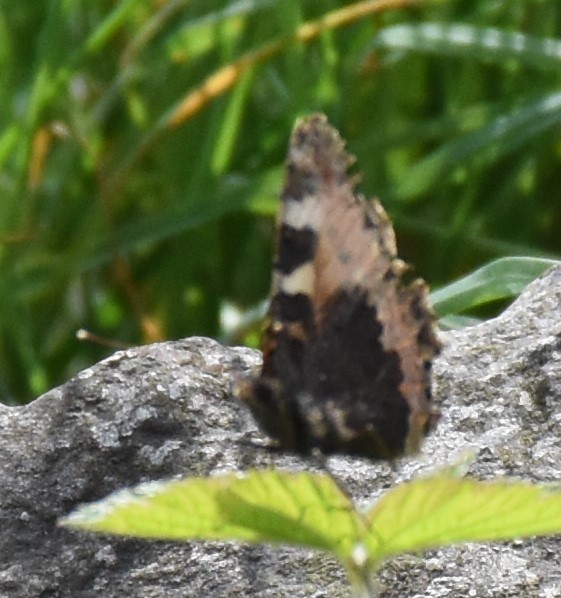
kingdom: Animalia
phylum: Arthropoda
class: Insecta
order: Lepidoptera
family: Nymphalidae
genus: Aglais
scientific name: Aglais urticae
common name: Small tortoiseshell
